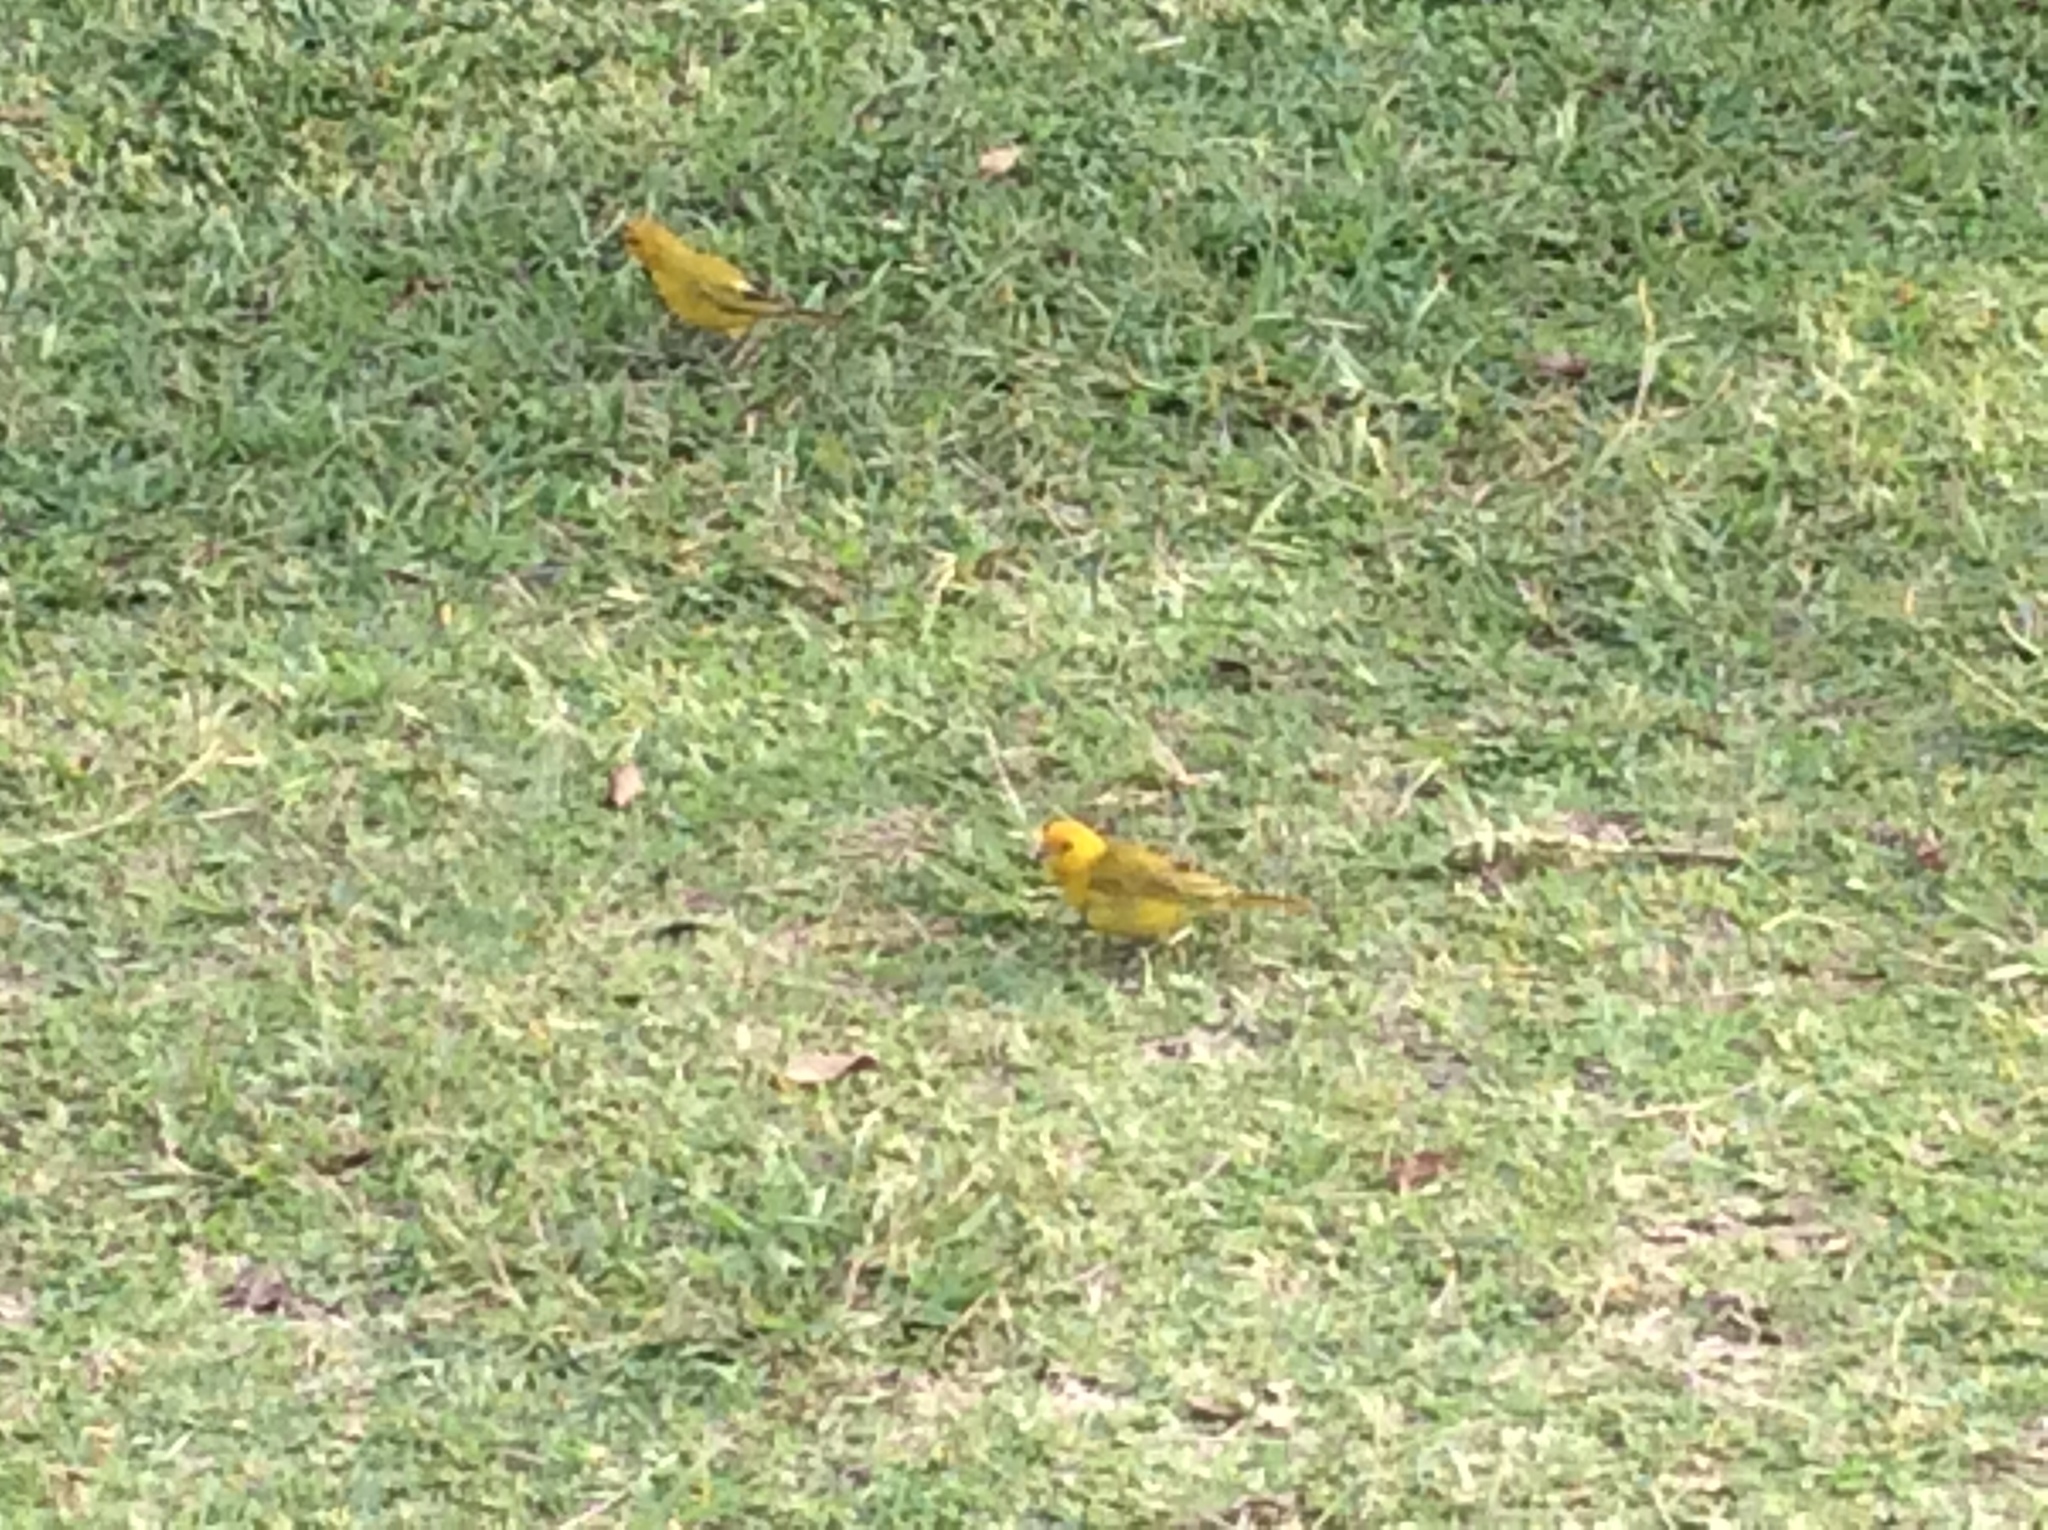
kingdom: Animalia
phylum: Chordata
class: Aves
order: Passeriformes
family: Thraupidae
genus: Sicalis
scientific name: Sicalis flaveola
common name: Saffron finch
